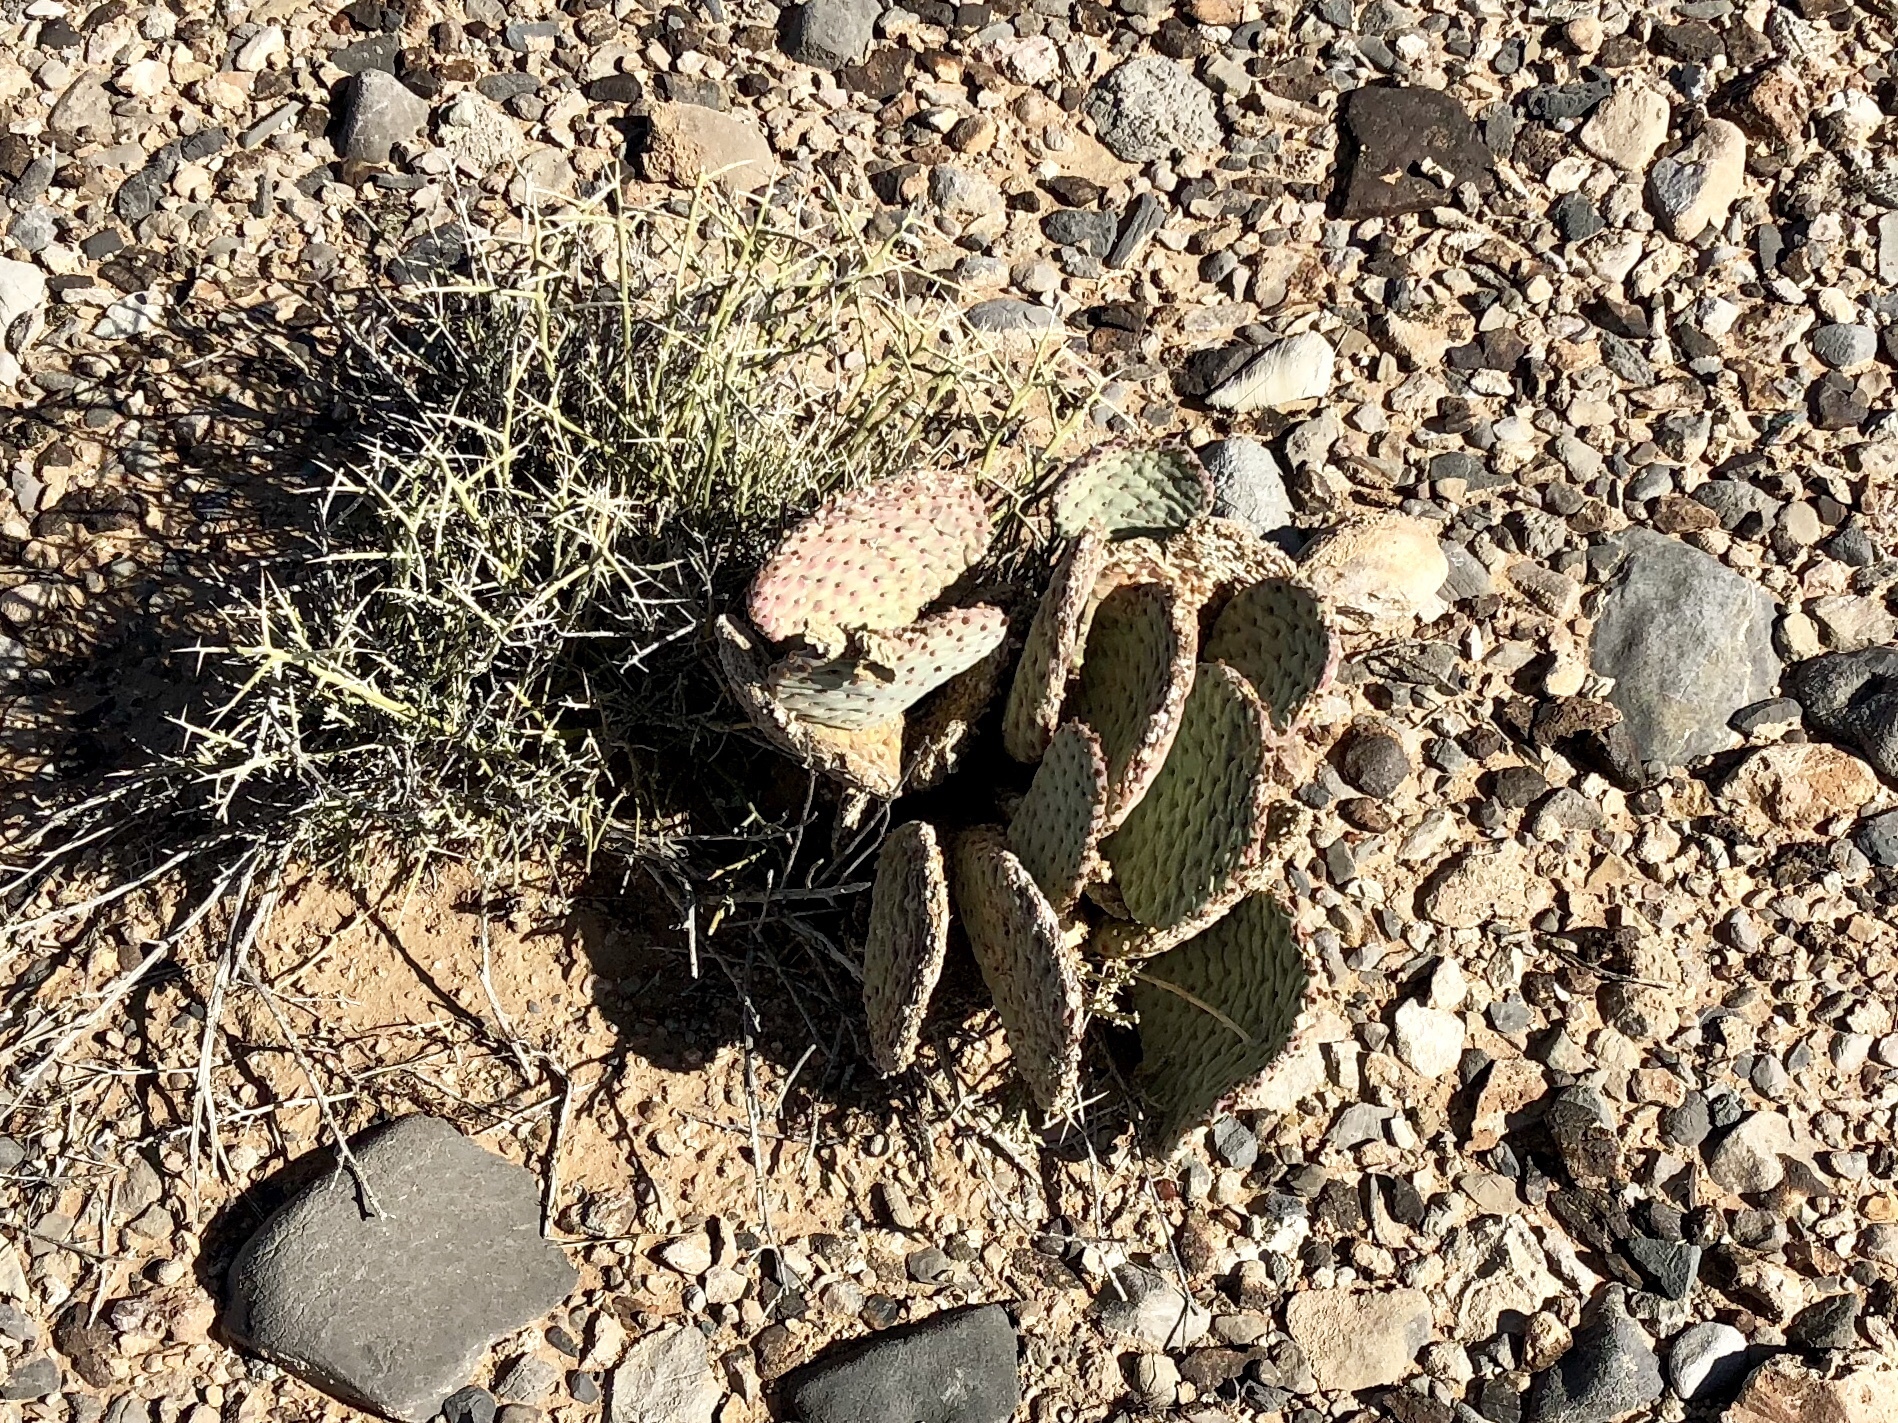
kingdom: Plantae
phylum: Tracheophyta
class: Magnoliopsida
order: Caryophyllales
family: Cactaceae
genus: Opuntia
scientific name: Opuntia basilaris
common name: Beavertail prickly-pear
